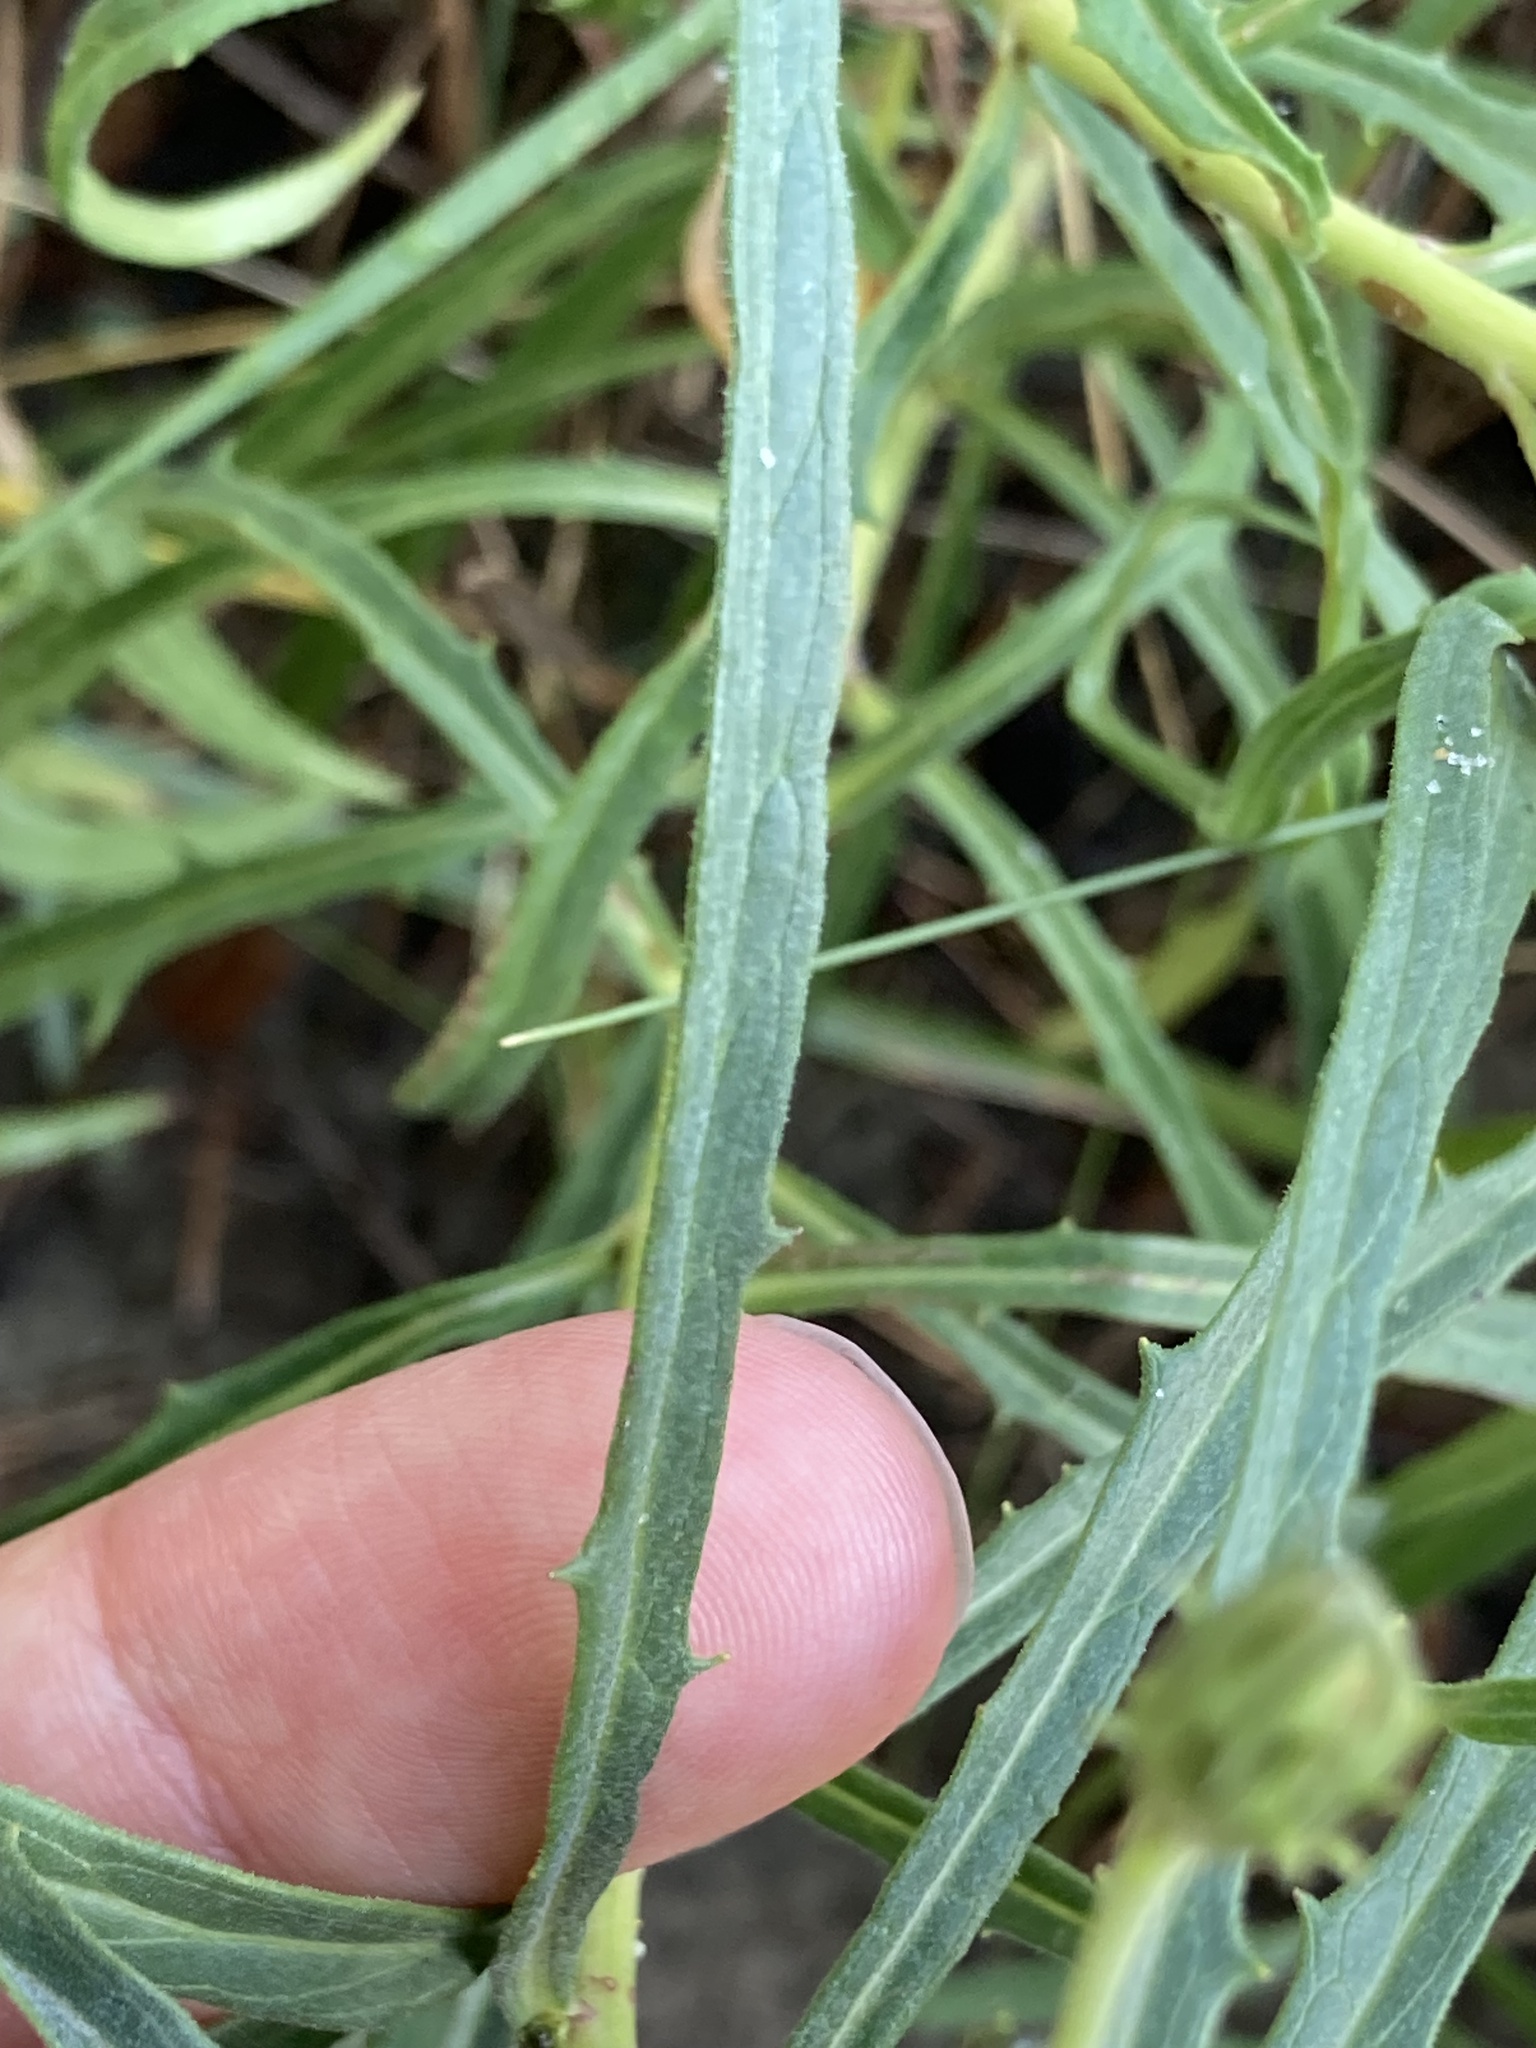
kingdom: Plantae
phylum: Tracheophyta
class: Magnoliopsida
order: Asterales
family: Asteraceae
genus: Hieracium
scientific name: Hieracium umbellatum
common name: Northern hawkweed
